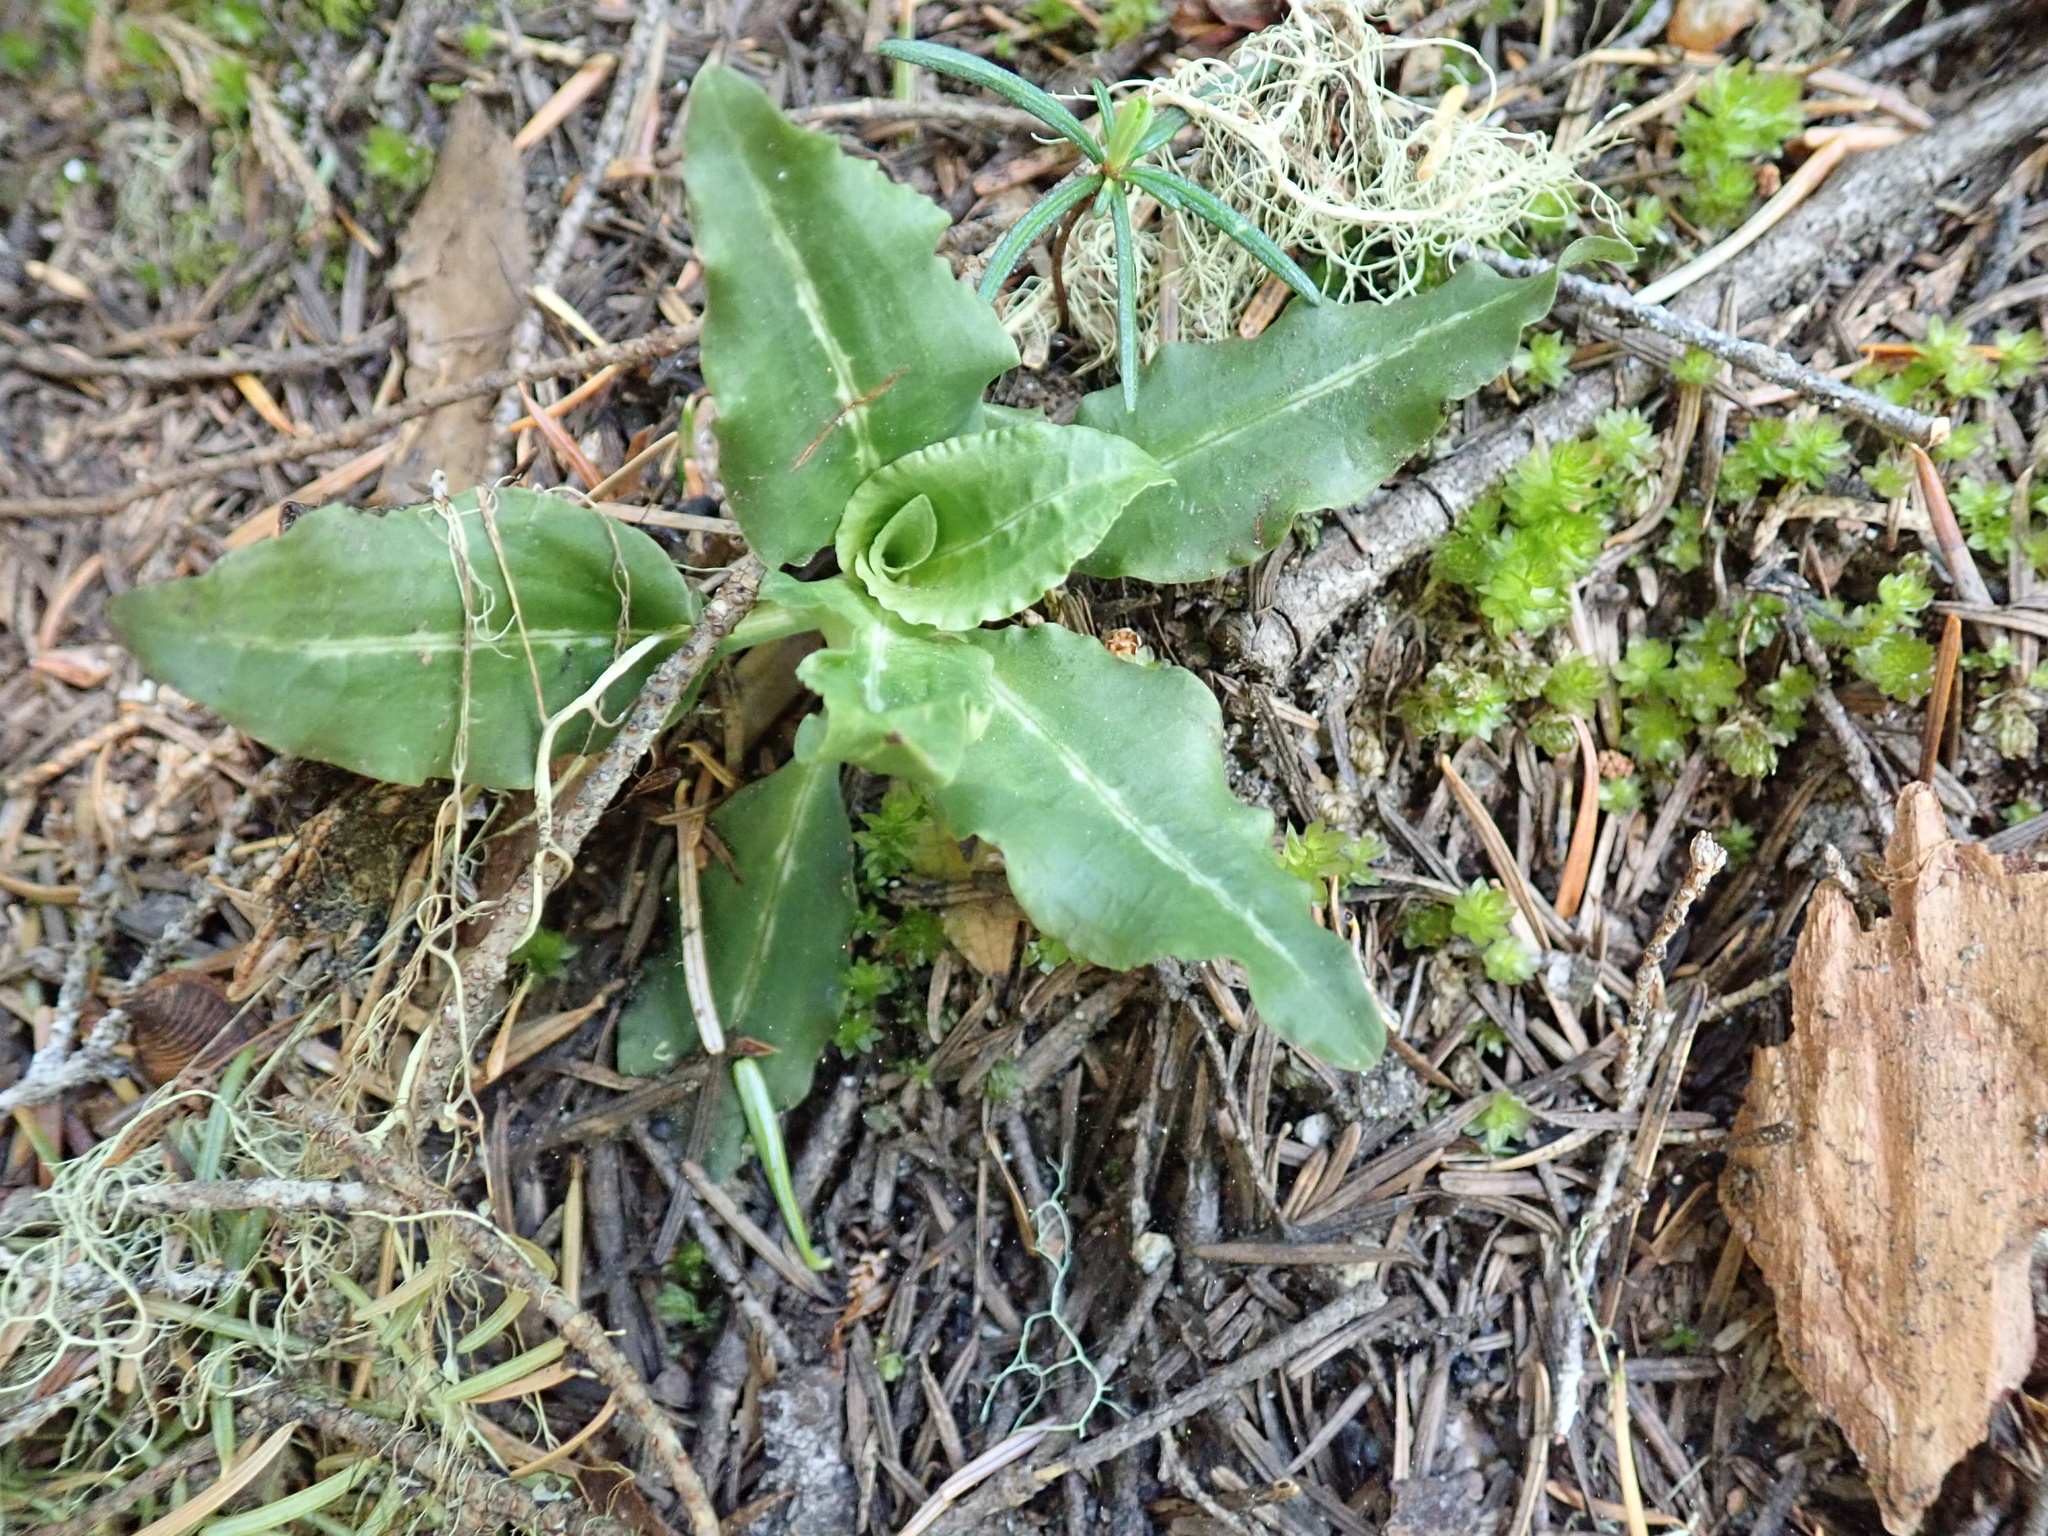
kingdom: Plantae
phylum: Tracheophyta
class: Liliopsida
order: Asparagales
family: Orchidaceae
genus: Goodyera
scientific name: Goodyera oblongifolia
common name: Giant rattlesnake-plantain
